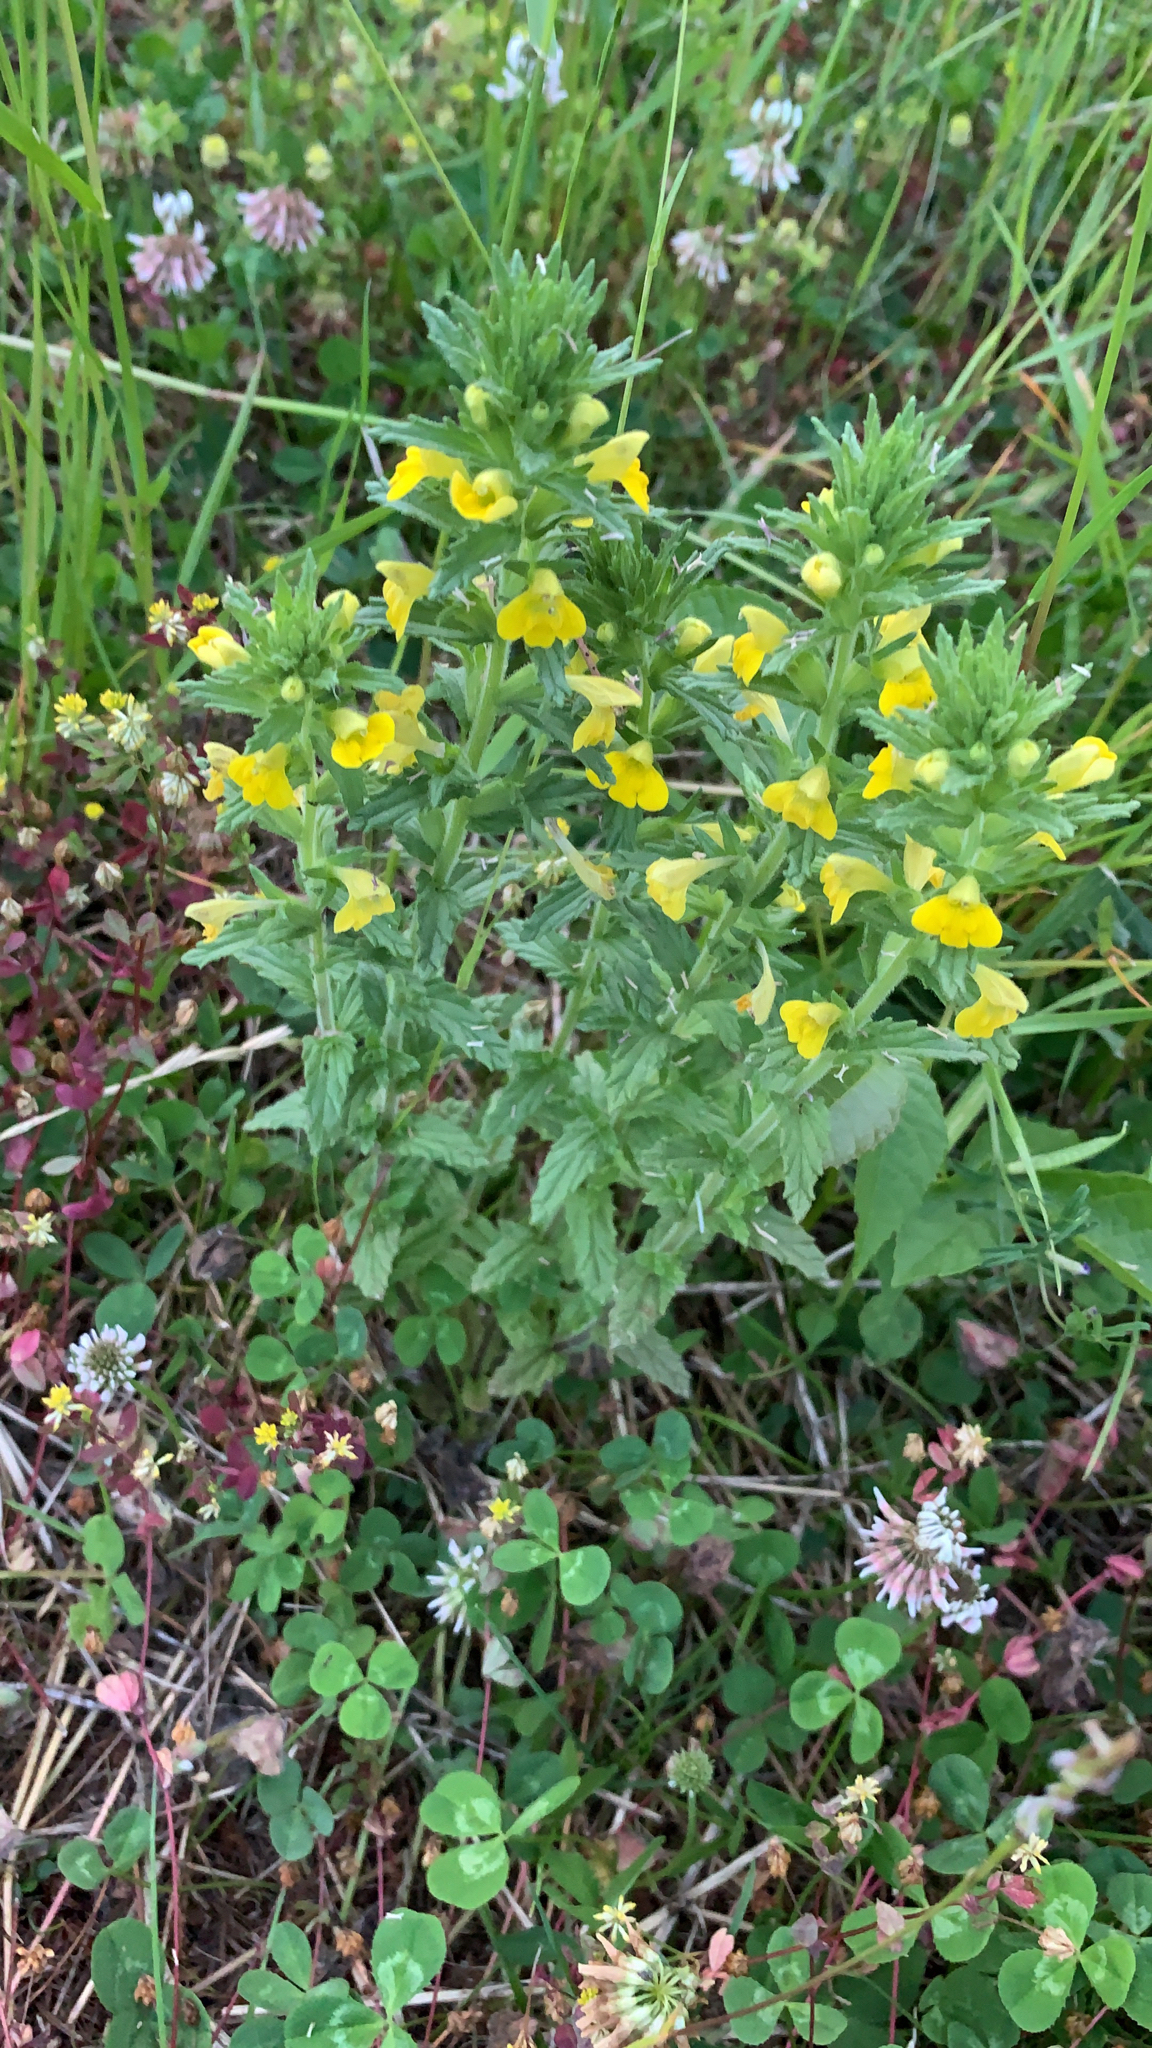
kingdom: Plantae
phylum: Tracheophyta
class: Magnoliopsida
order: Lamiales
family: Orobanchaceae
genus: Bellardia
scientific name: Bellardia viscosa
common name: Sticky parentucellia
